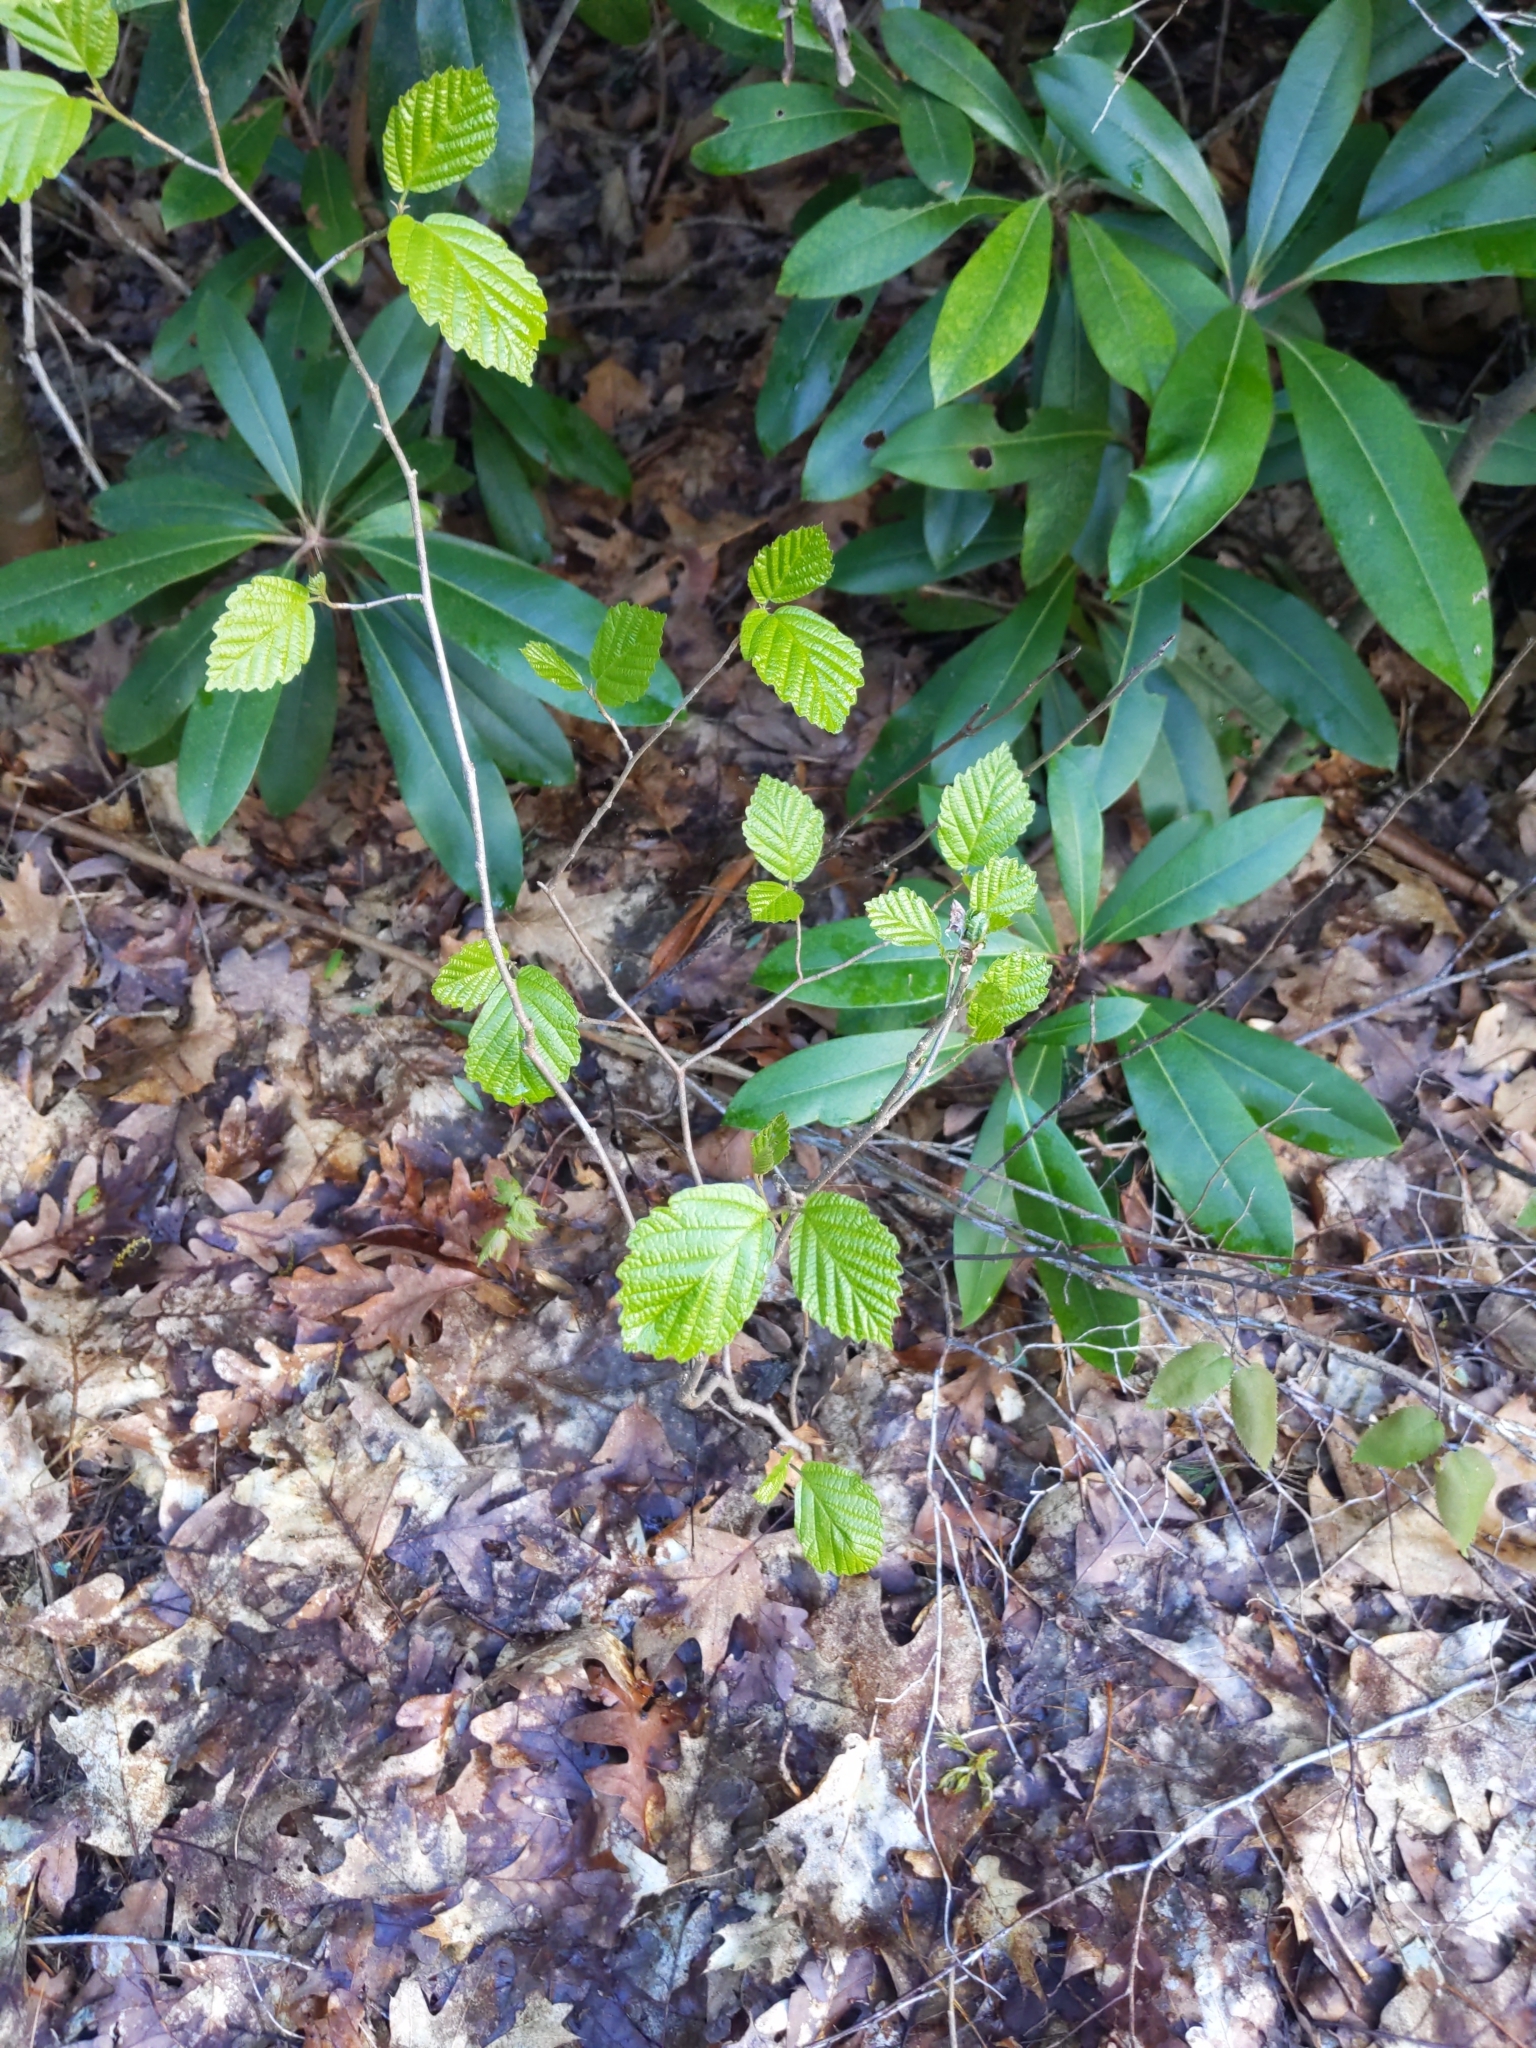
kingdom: Plantae
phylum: Tracheophyta
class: Magnoliopsida
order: Saxifragales
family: Hamamelidaceae
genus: Hamamelis
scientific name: Hamamelis virginiana
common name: Witch-hazel
